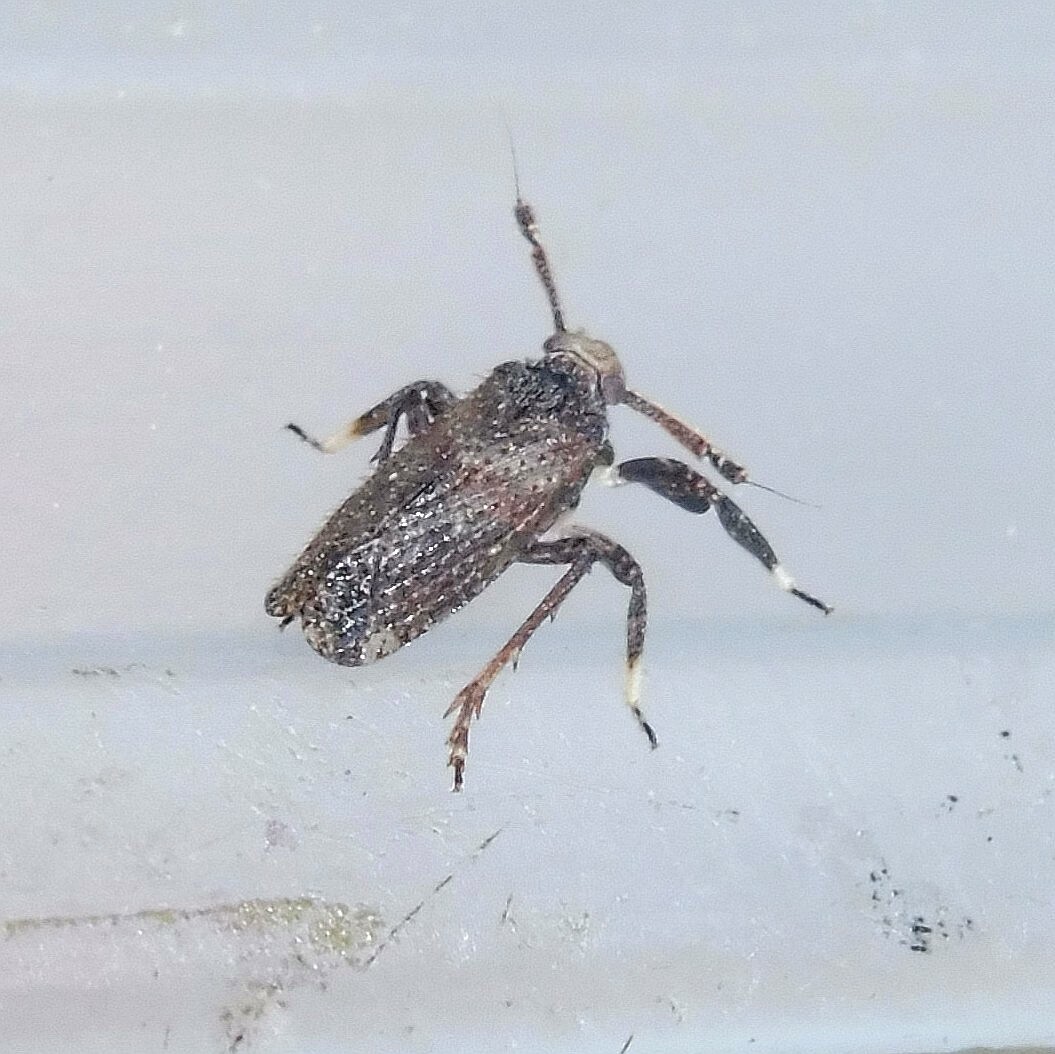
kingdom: Animalia
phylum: Arthropoda
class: Insecta
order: Hemiptera
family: Delphacidae
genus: Asiraca
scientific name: Asiraca clavicornis
